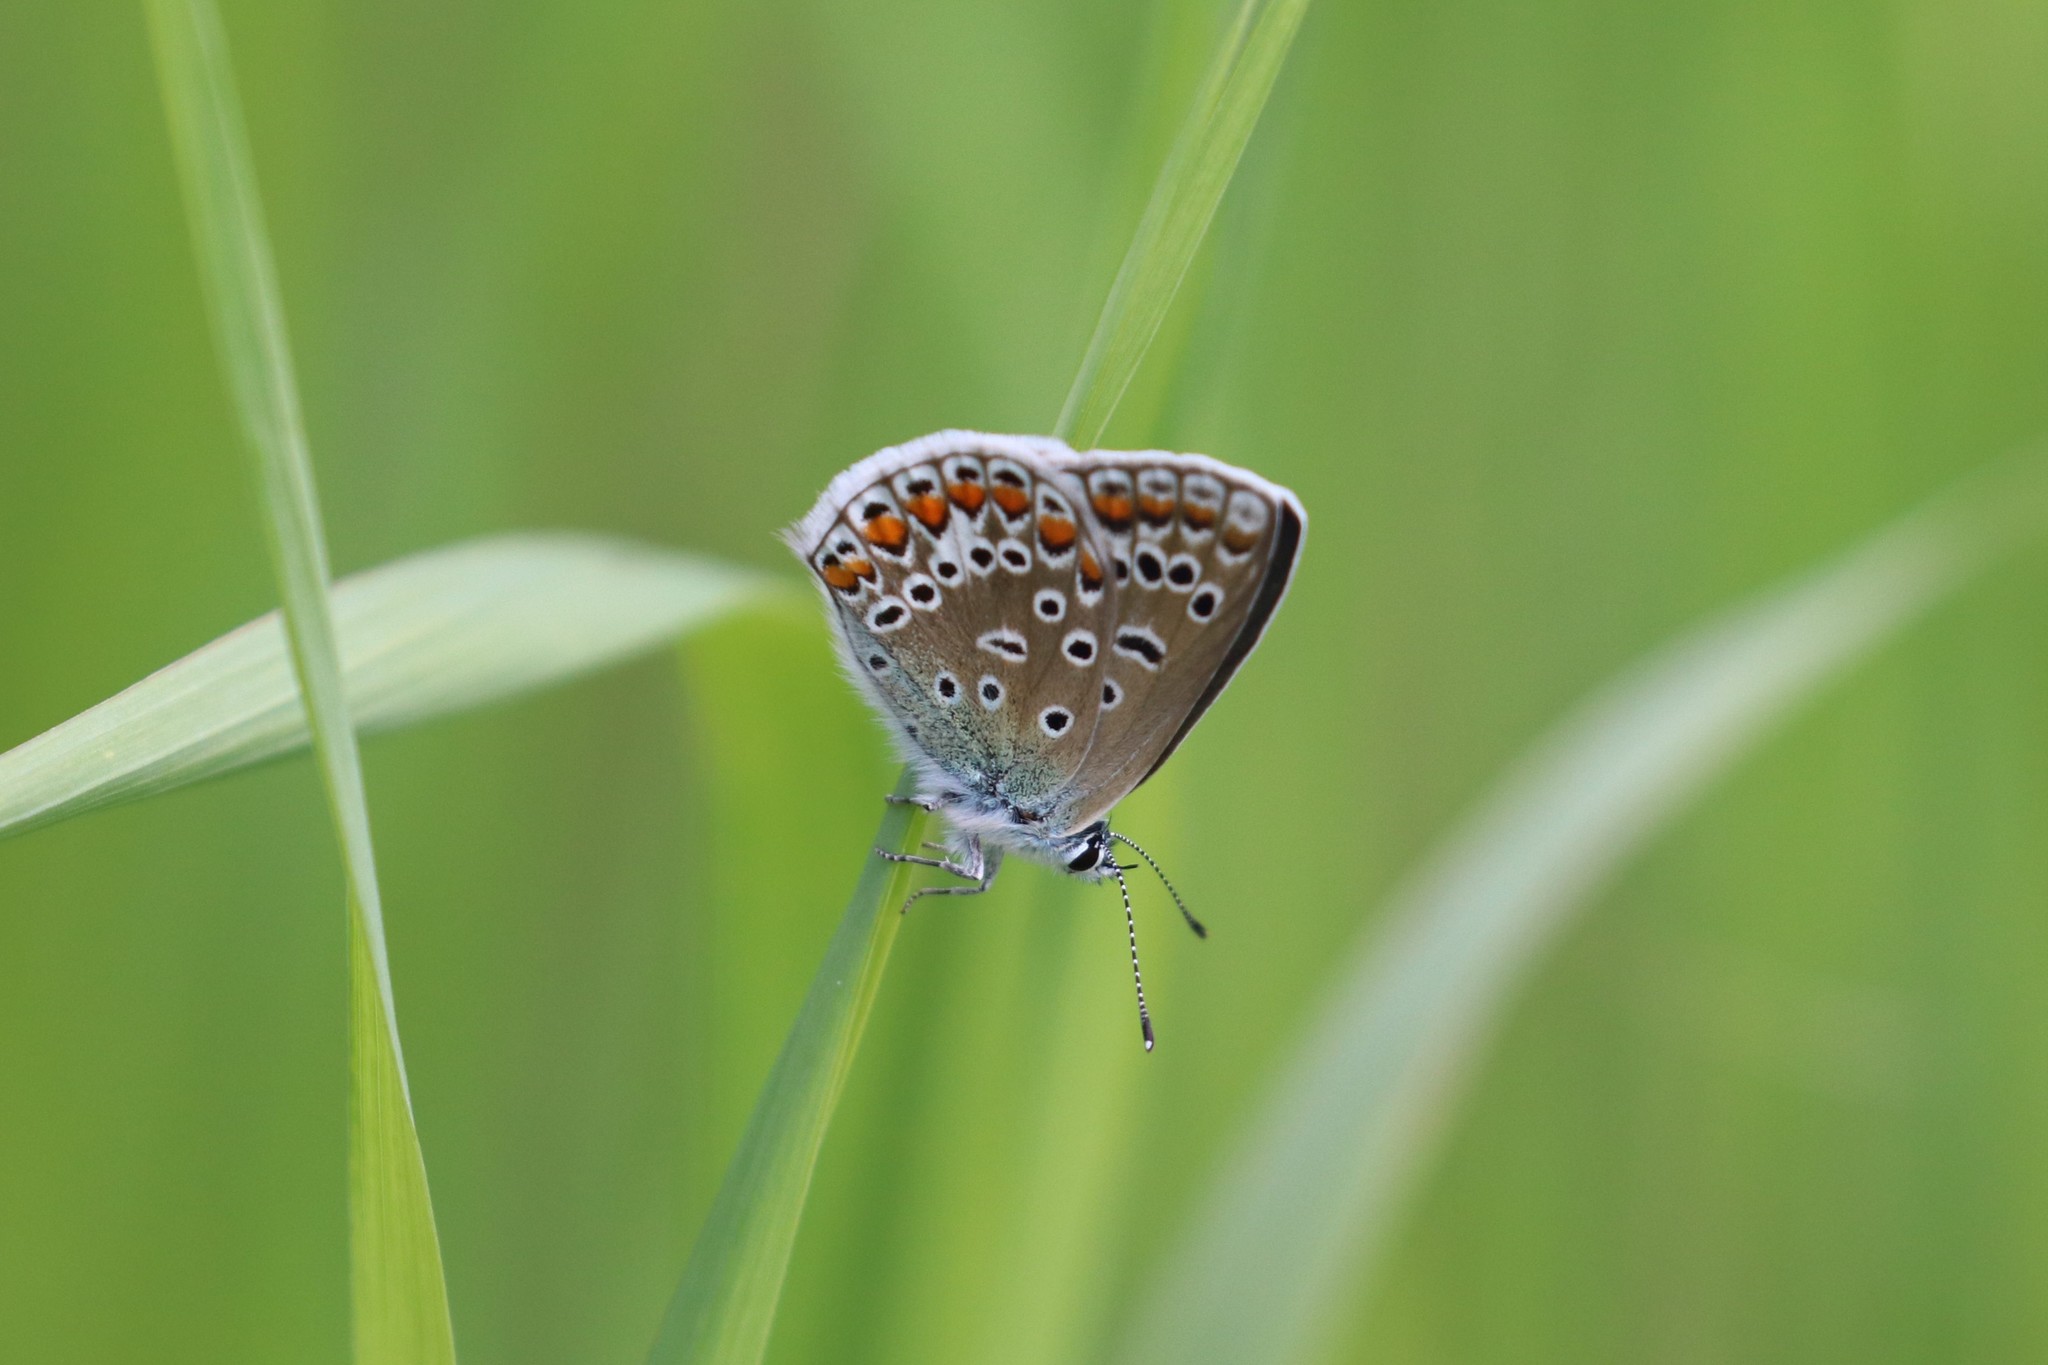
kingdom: Animalia
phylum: Arthropoda
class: Insecta
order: Lepidoptera
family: Lycaenidae
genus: Polyommatus
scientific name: Polyommatus icarus
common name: Common blue
